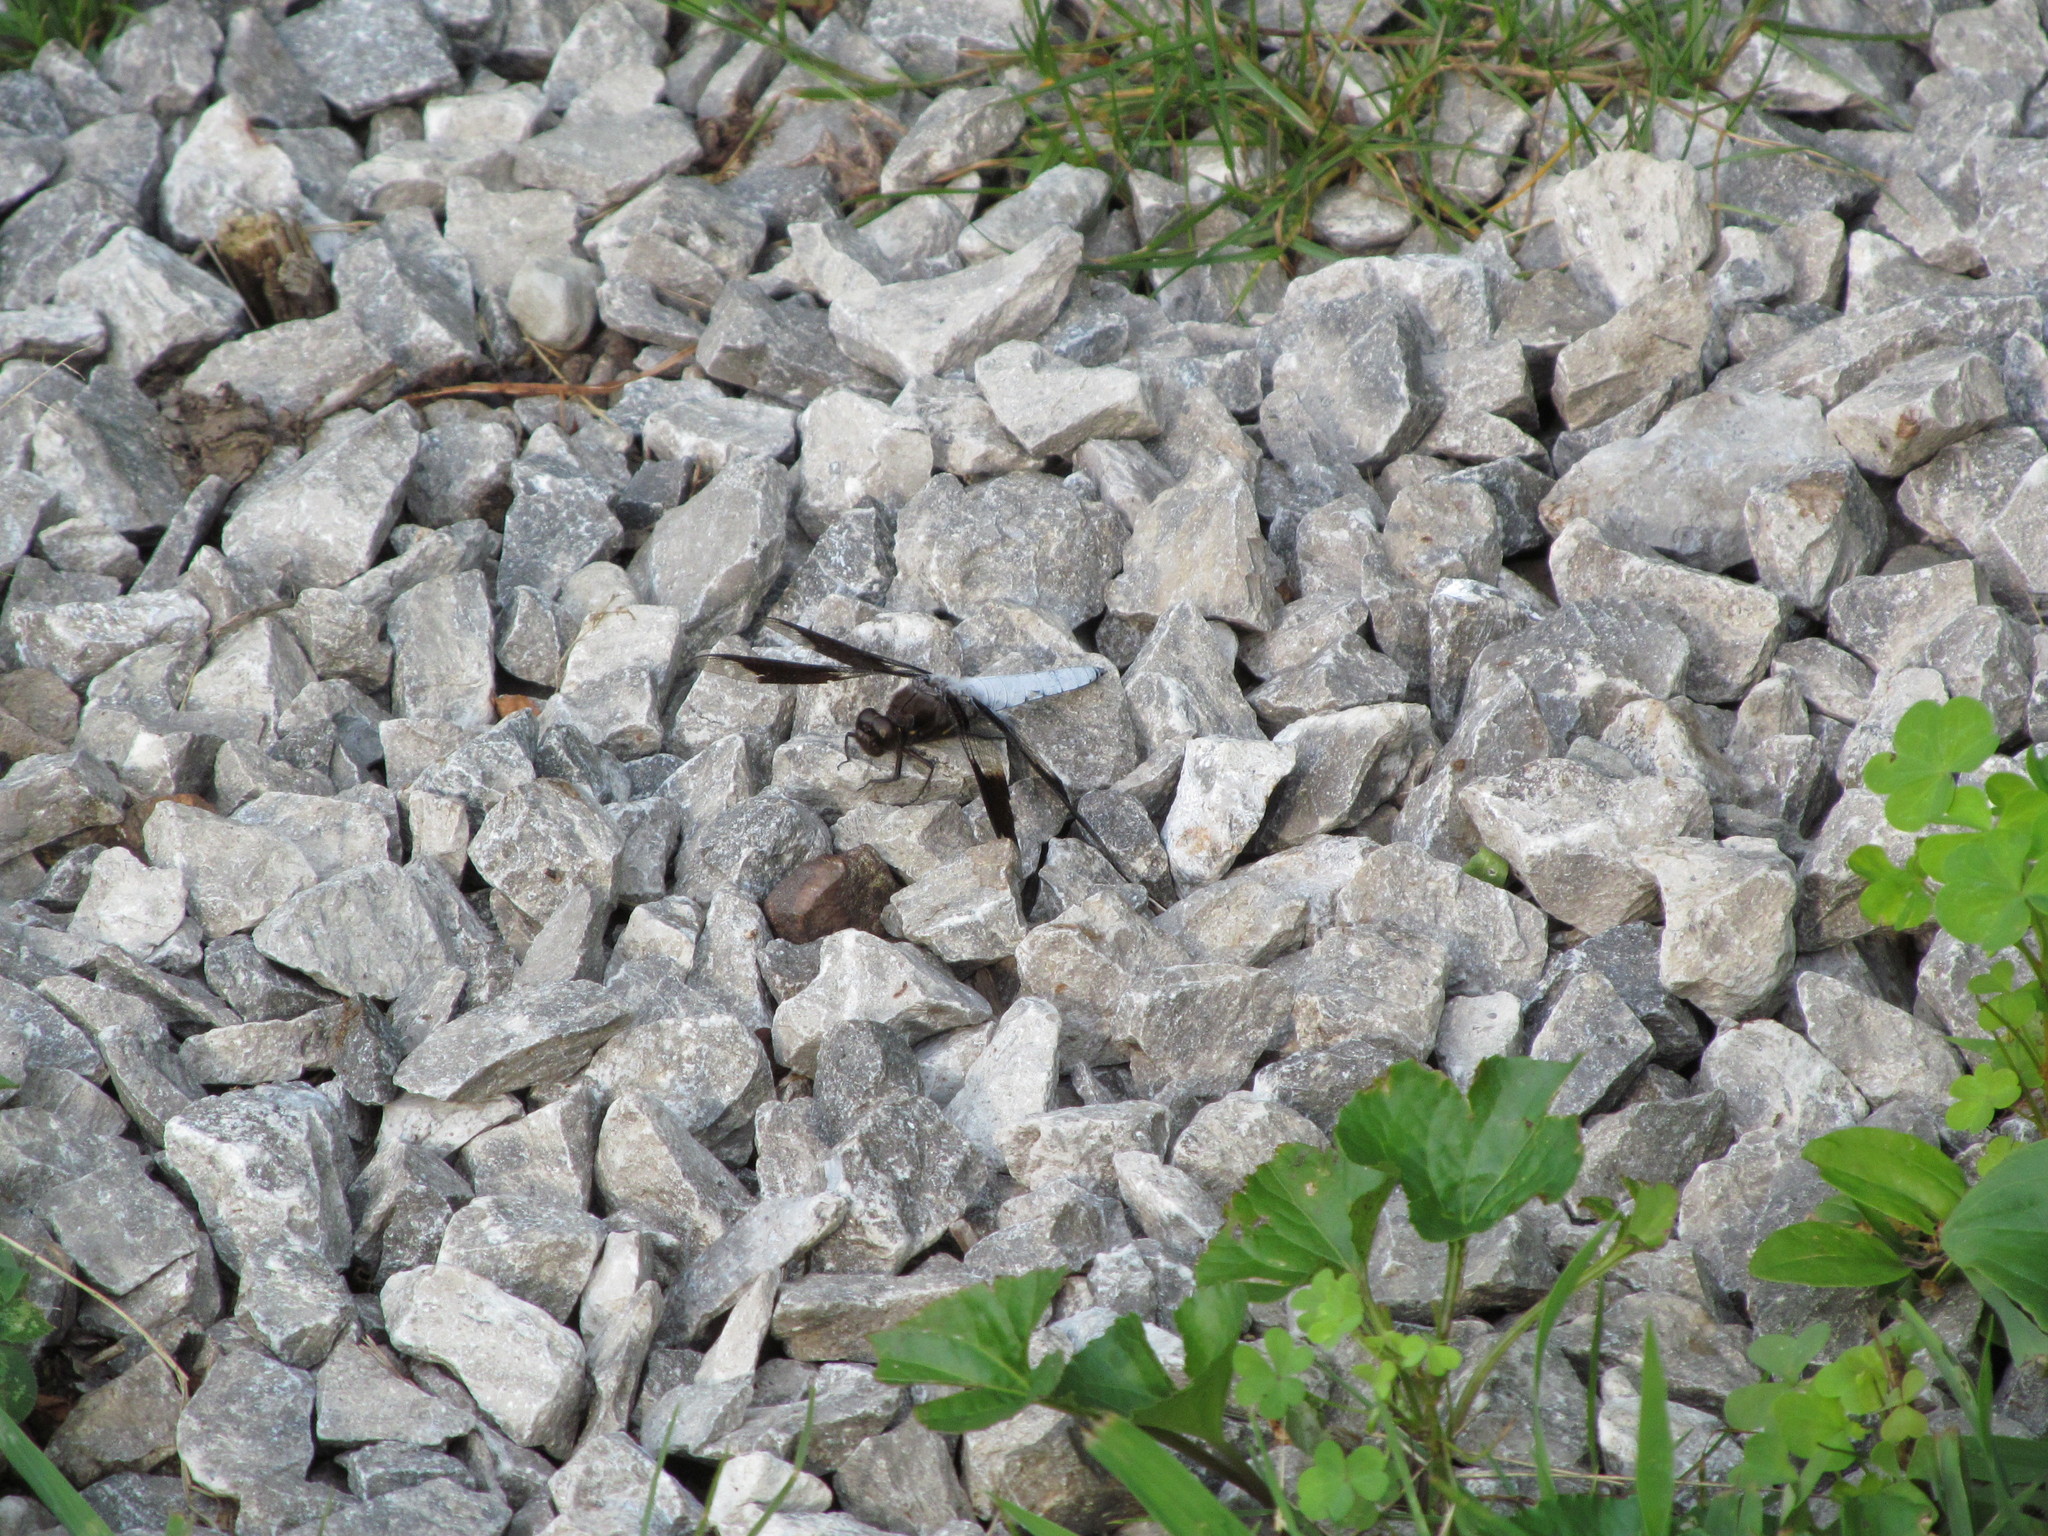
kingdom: Animalia
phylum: Arthropoda
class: Insecta
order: Odonata
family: Libellulidae
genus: Plathemis
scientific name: Plathemis lydia
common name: Common whitetail
